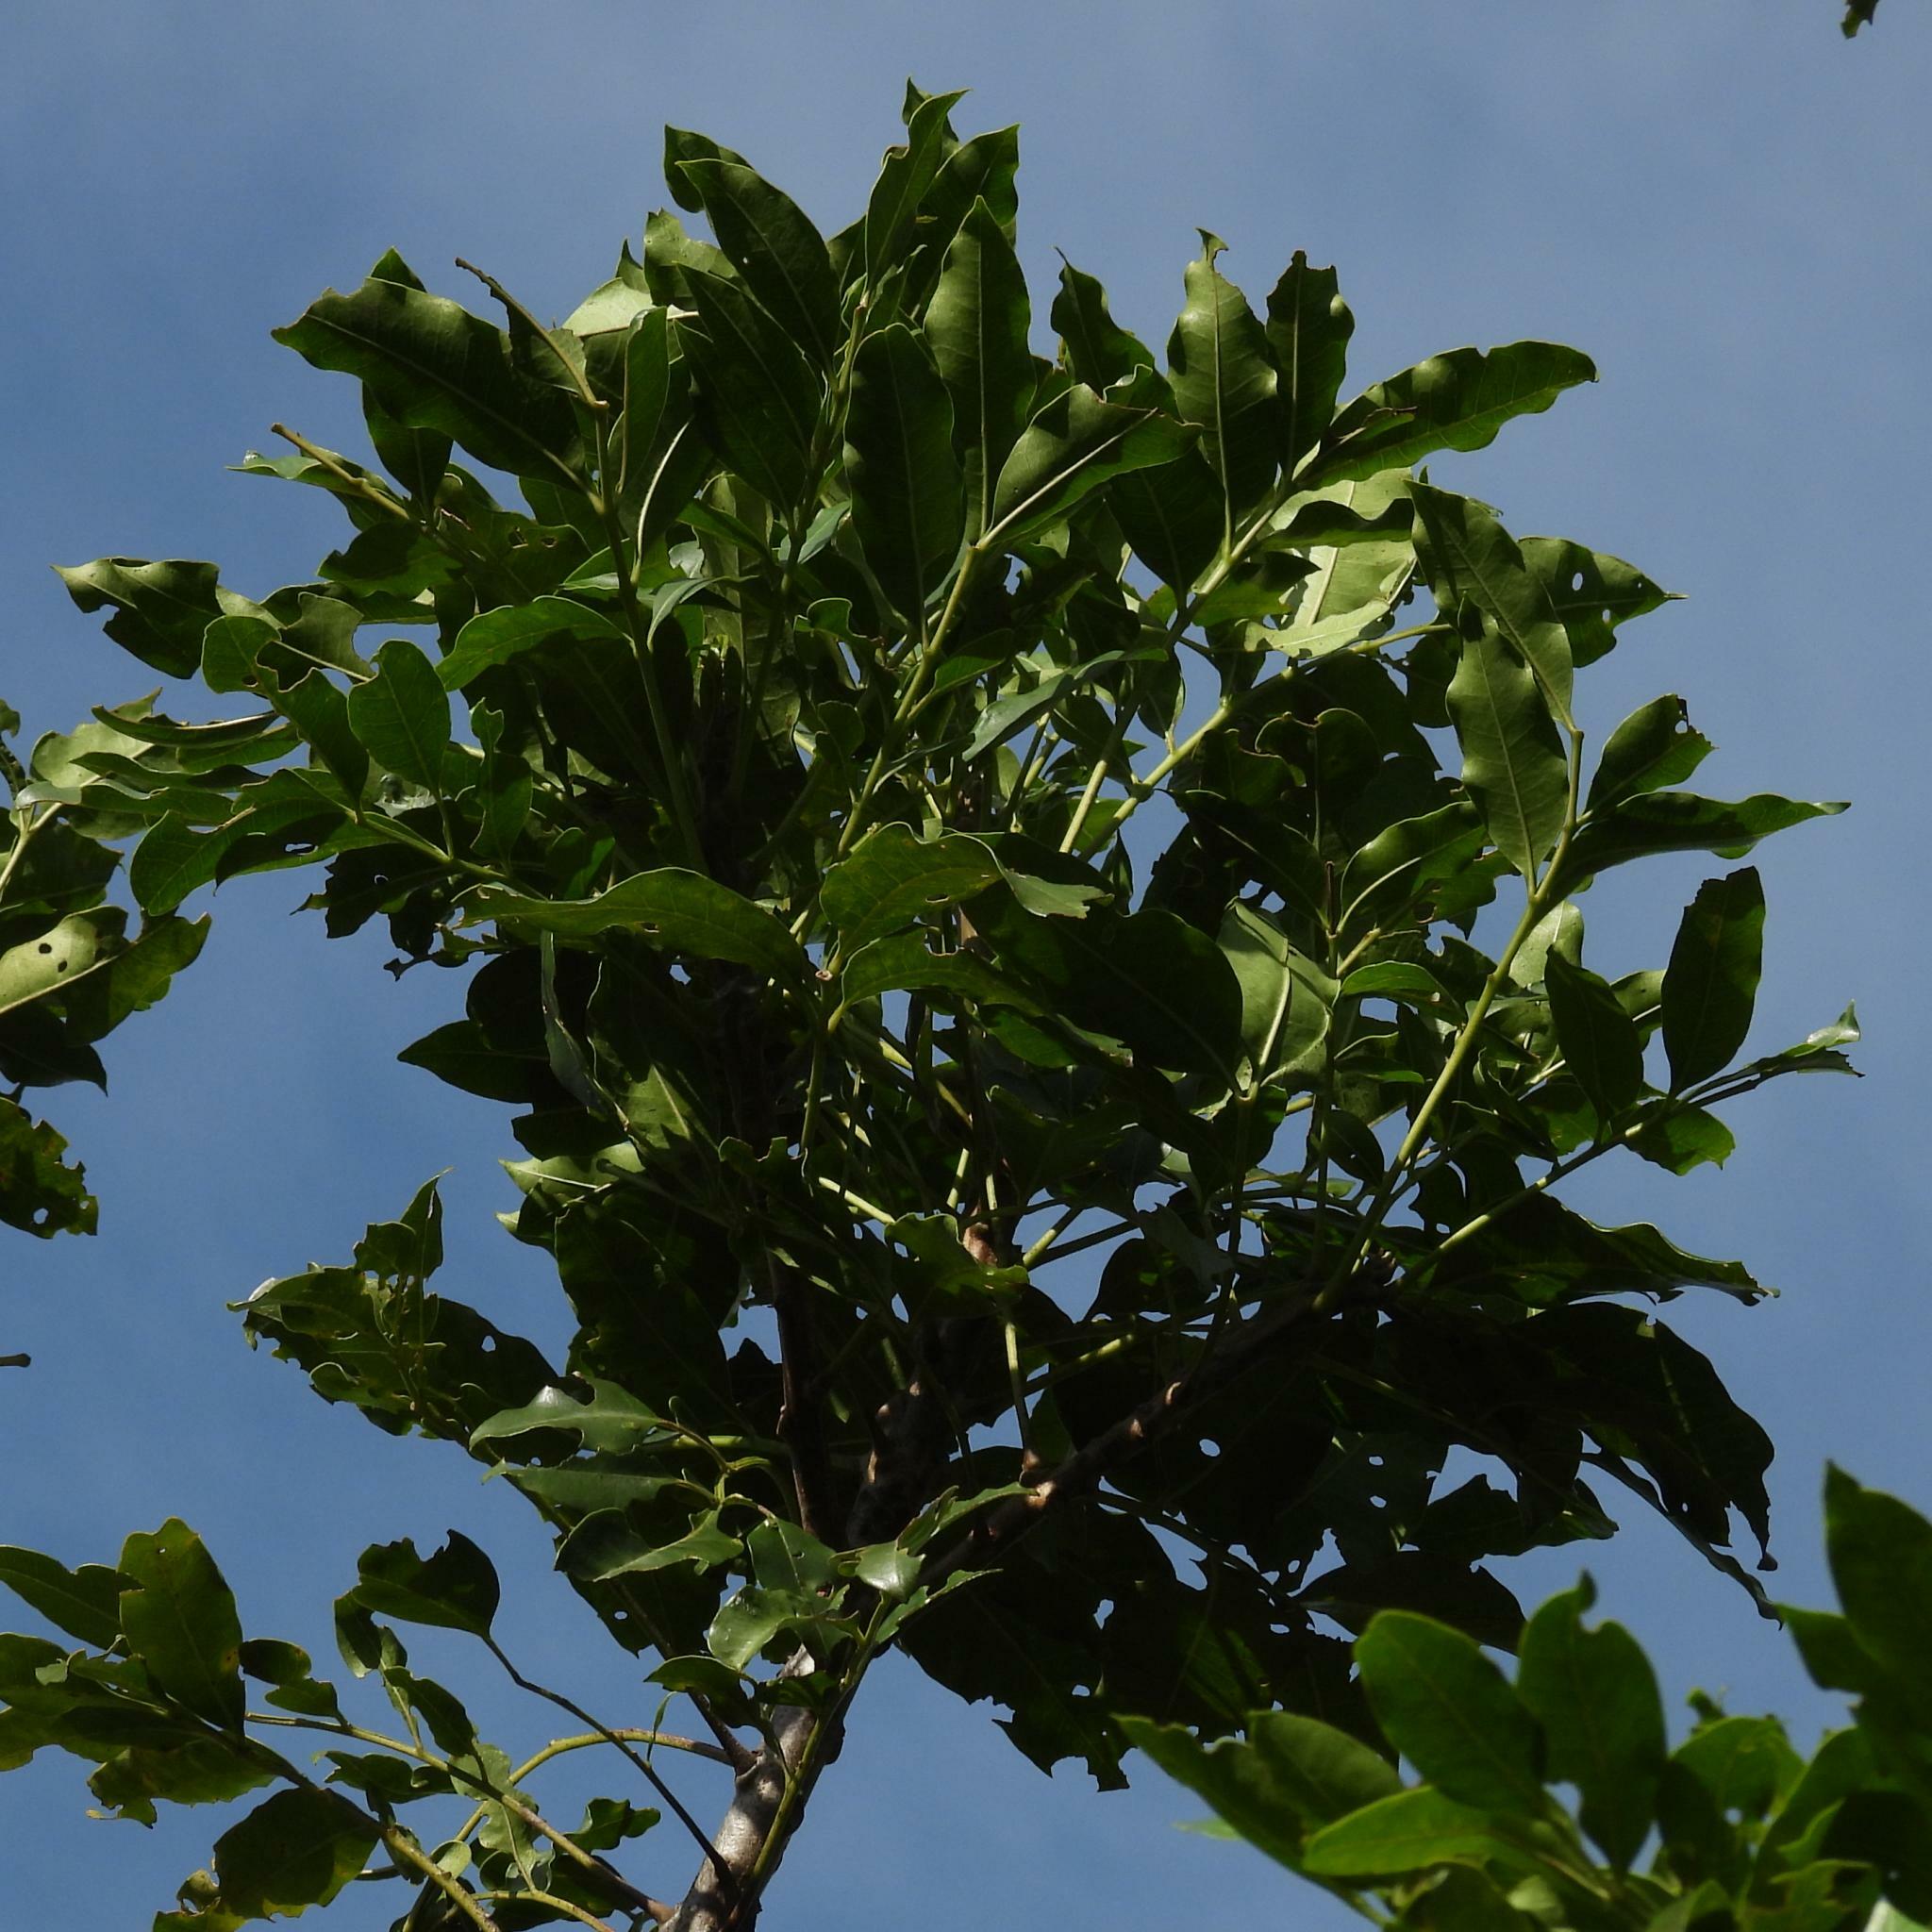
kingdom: Plantae
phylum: Tracheophyta
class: Magnoliopsida
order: Sapindales
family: Meliaceae
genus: Ekebergia
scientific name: Ekebergia capensis
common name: Cape-ash
